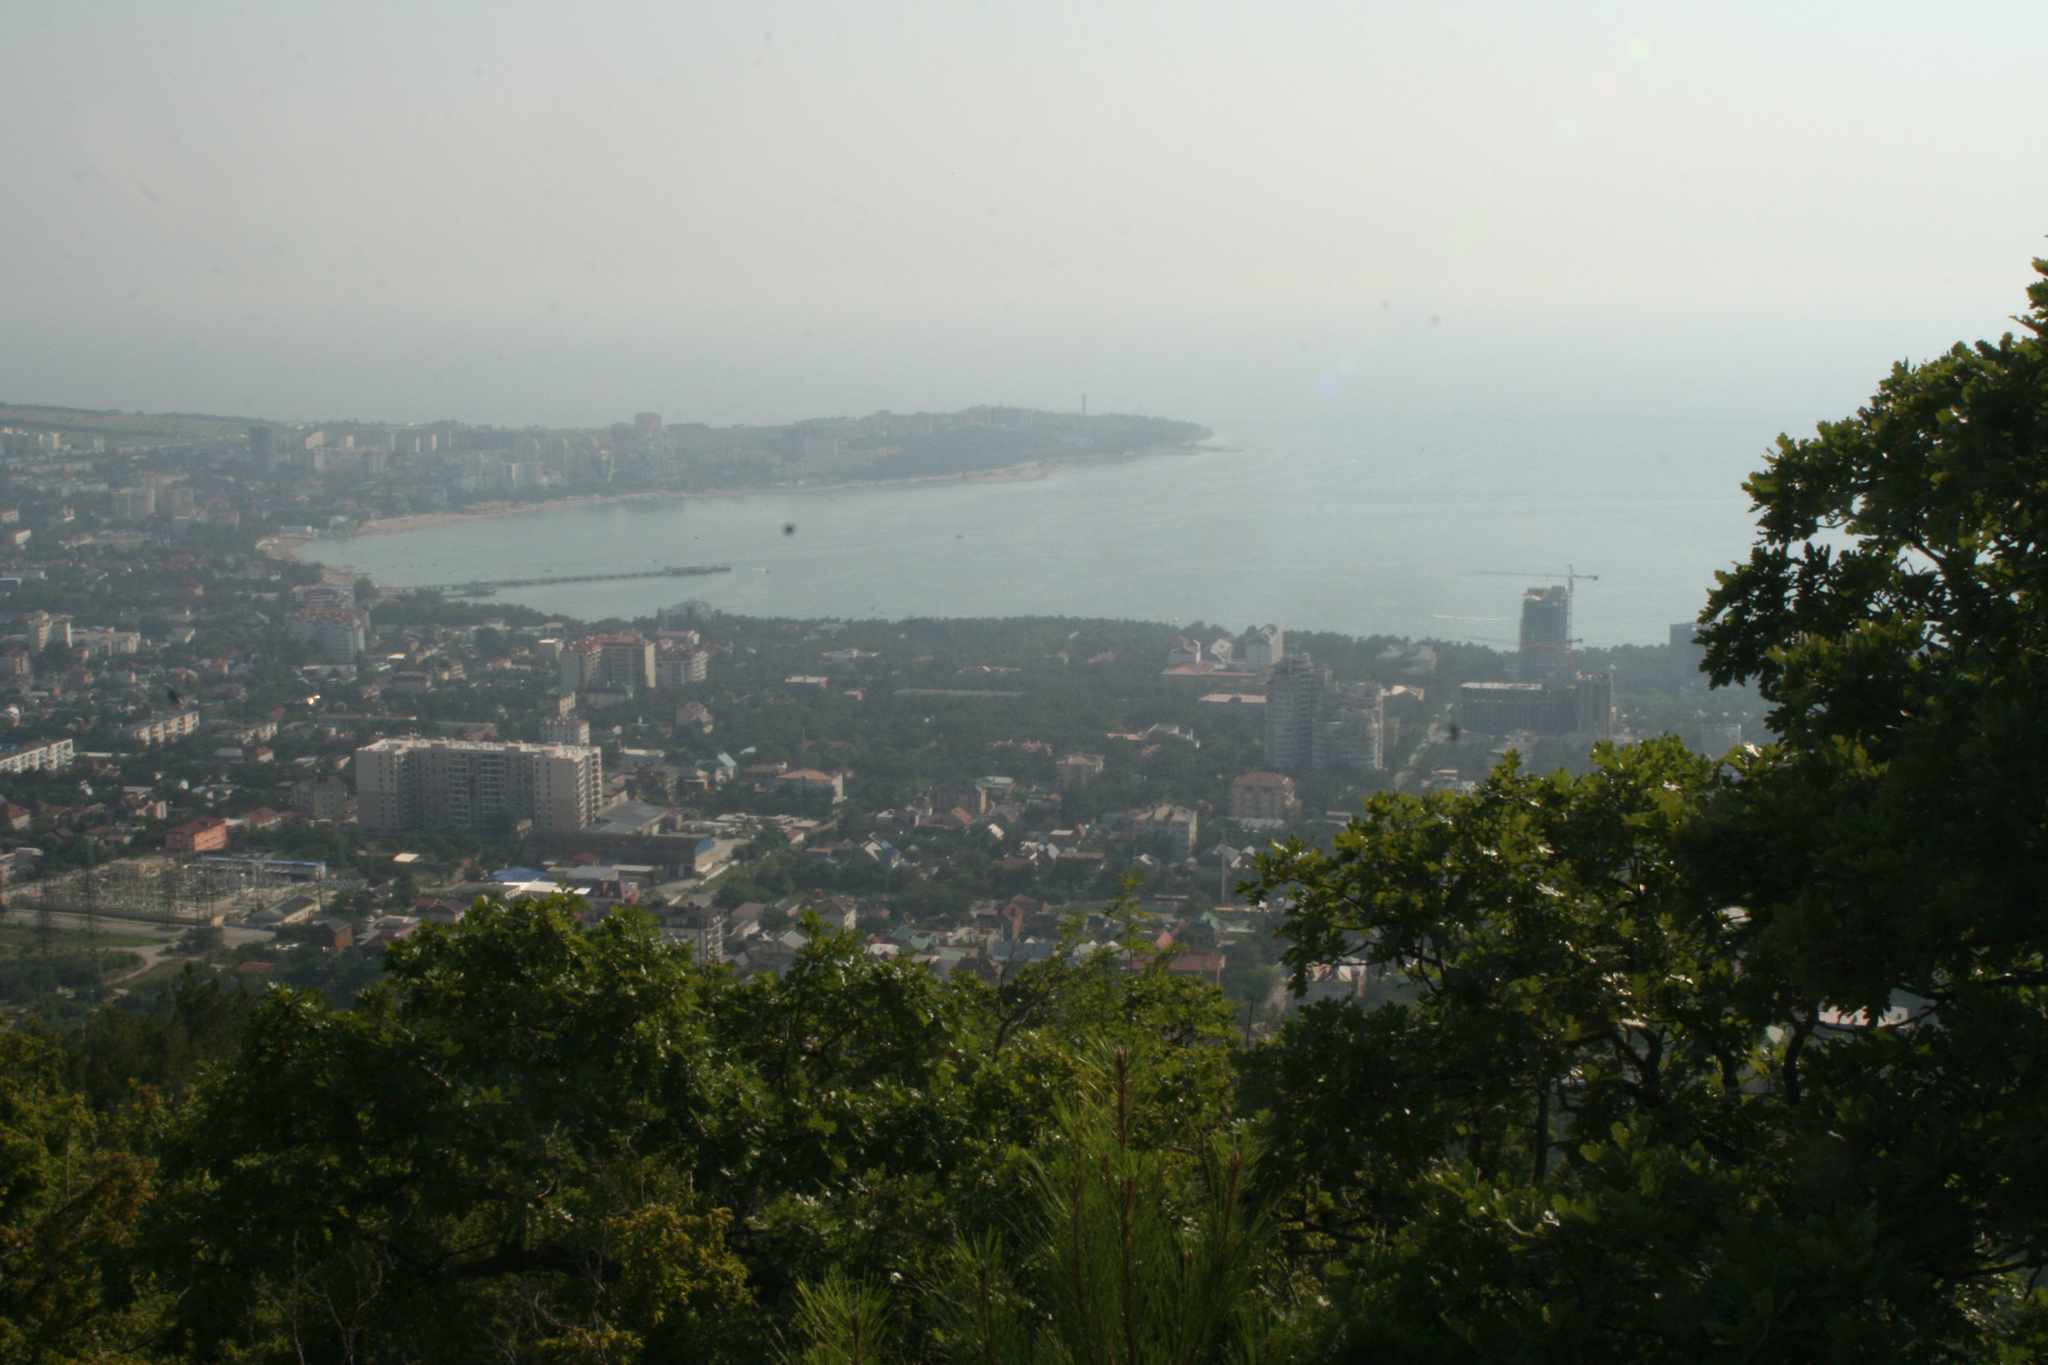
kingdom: Plantae
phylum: Tracheophyta
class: Magnoliopsida
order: Fagales
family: Fagaceae
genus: Quercus
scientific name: Quercus pubescens
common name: Downy oak
